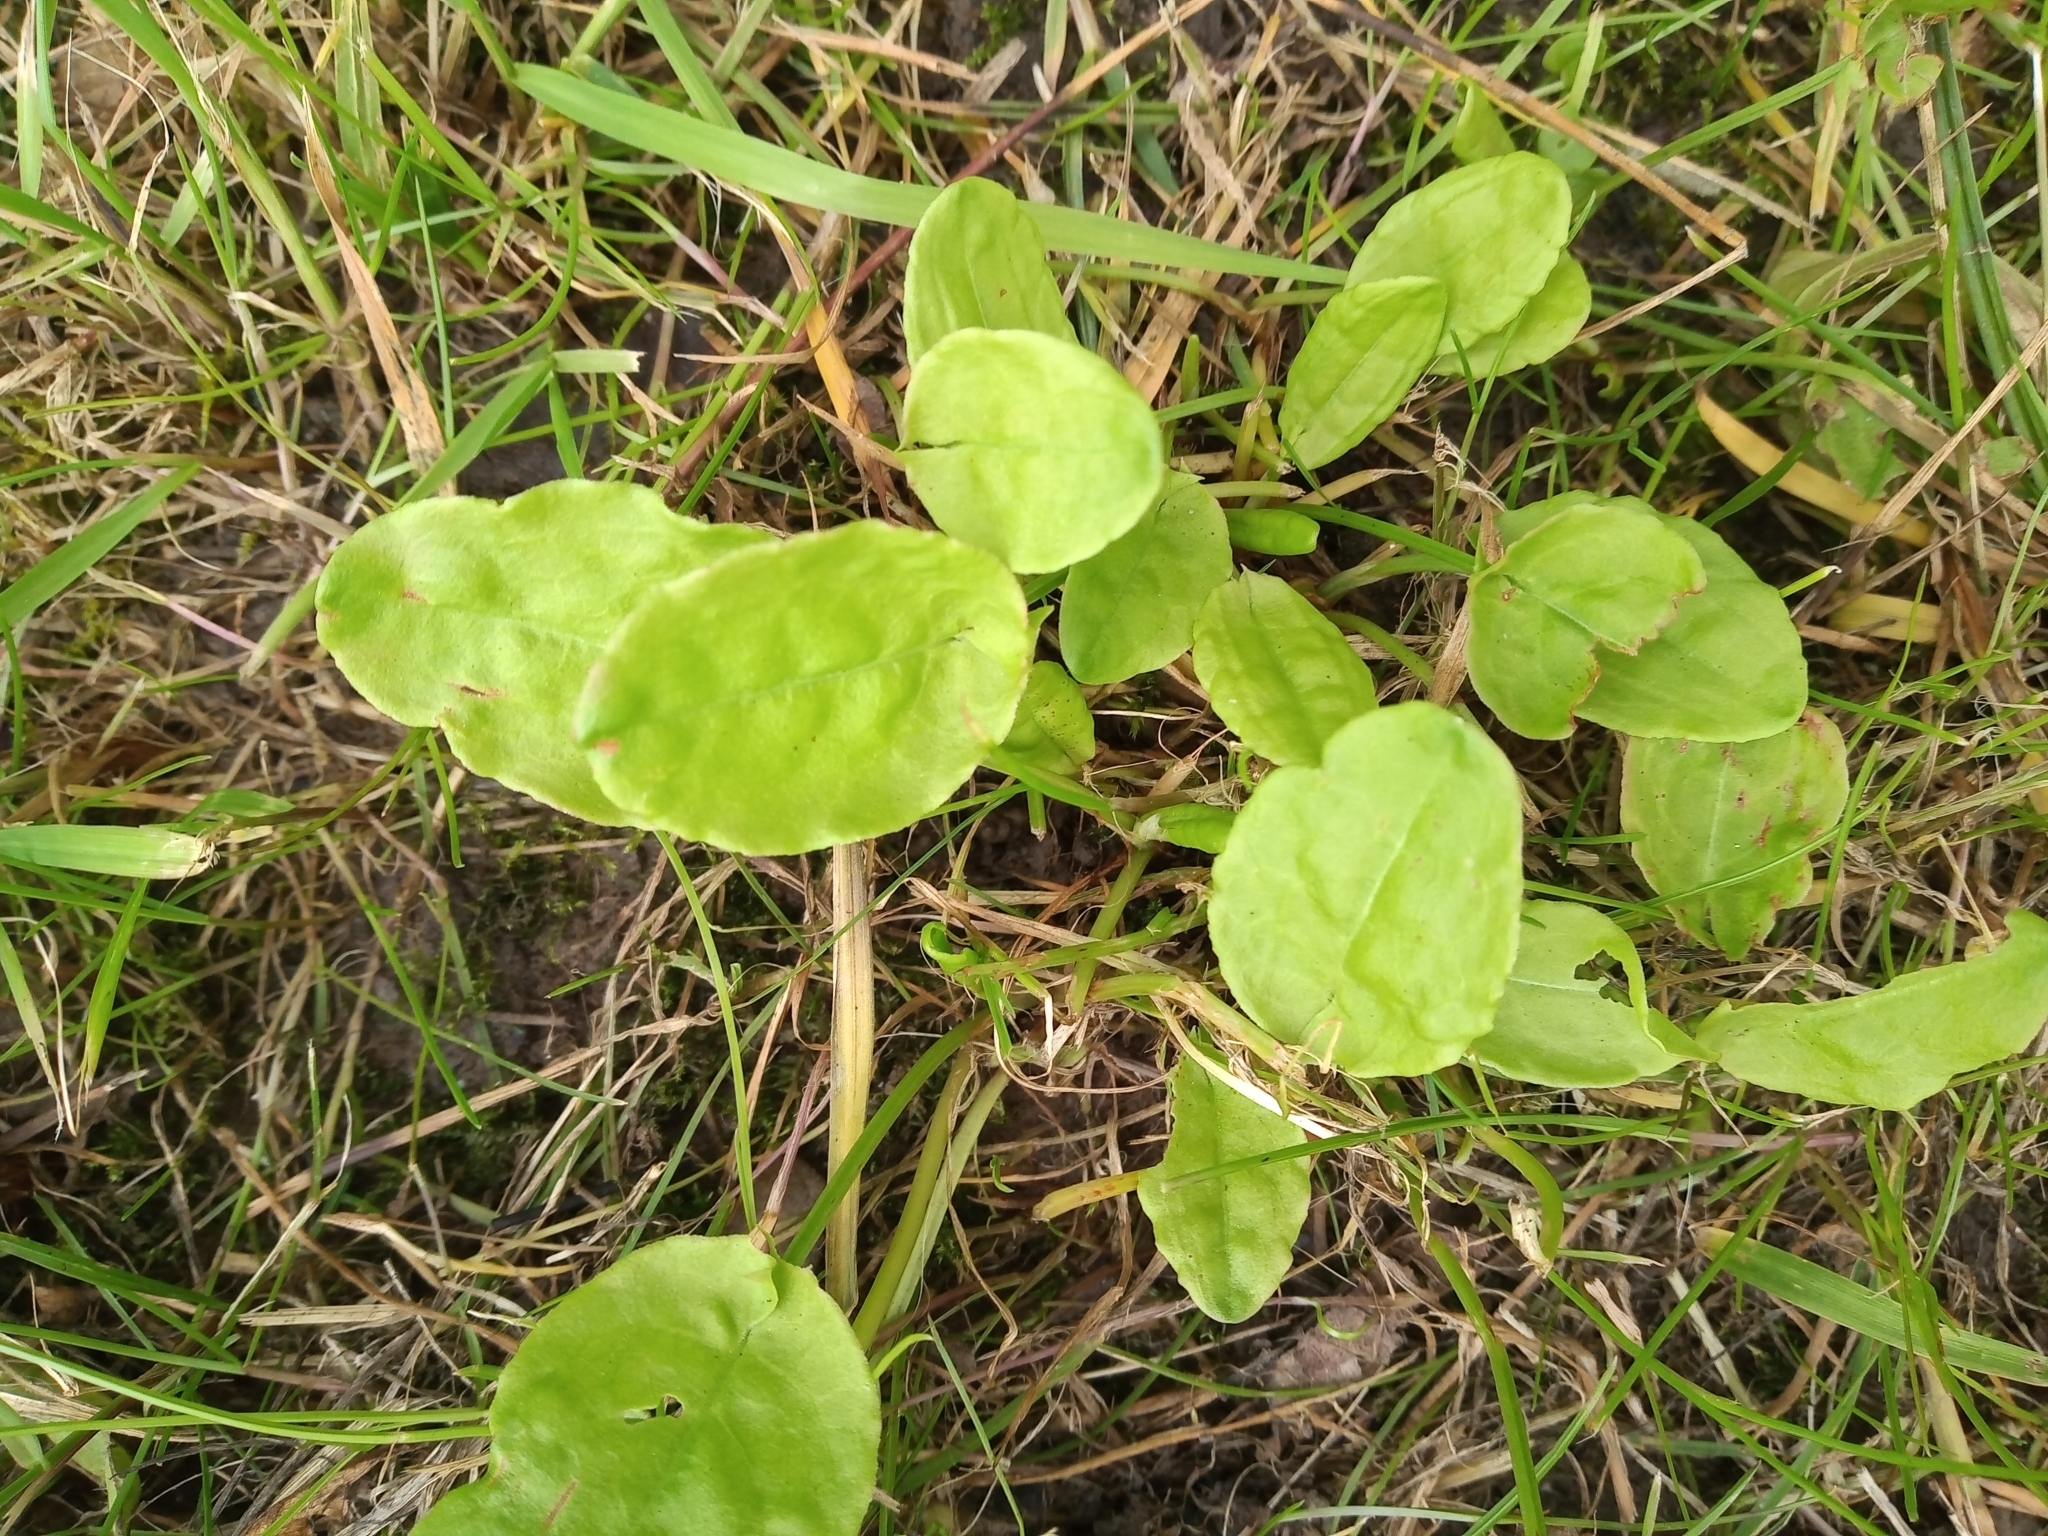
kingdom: Plantae
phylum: Tracheophyta
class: Magnoliopsida
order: Caryophyllales
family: Polygonaceae
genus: Rumex
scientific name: Rumex acetosa
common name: Garden sorrel
